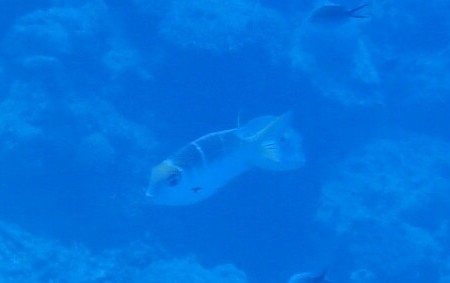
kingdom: Animalia
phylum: Chordata
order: Perciformes
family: Lethrinidae
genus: Monotaxis
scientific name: Monotaxis heterodon
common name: Redfin emperor
